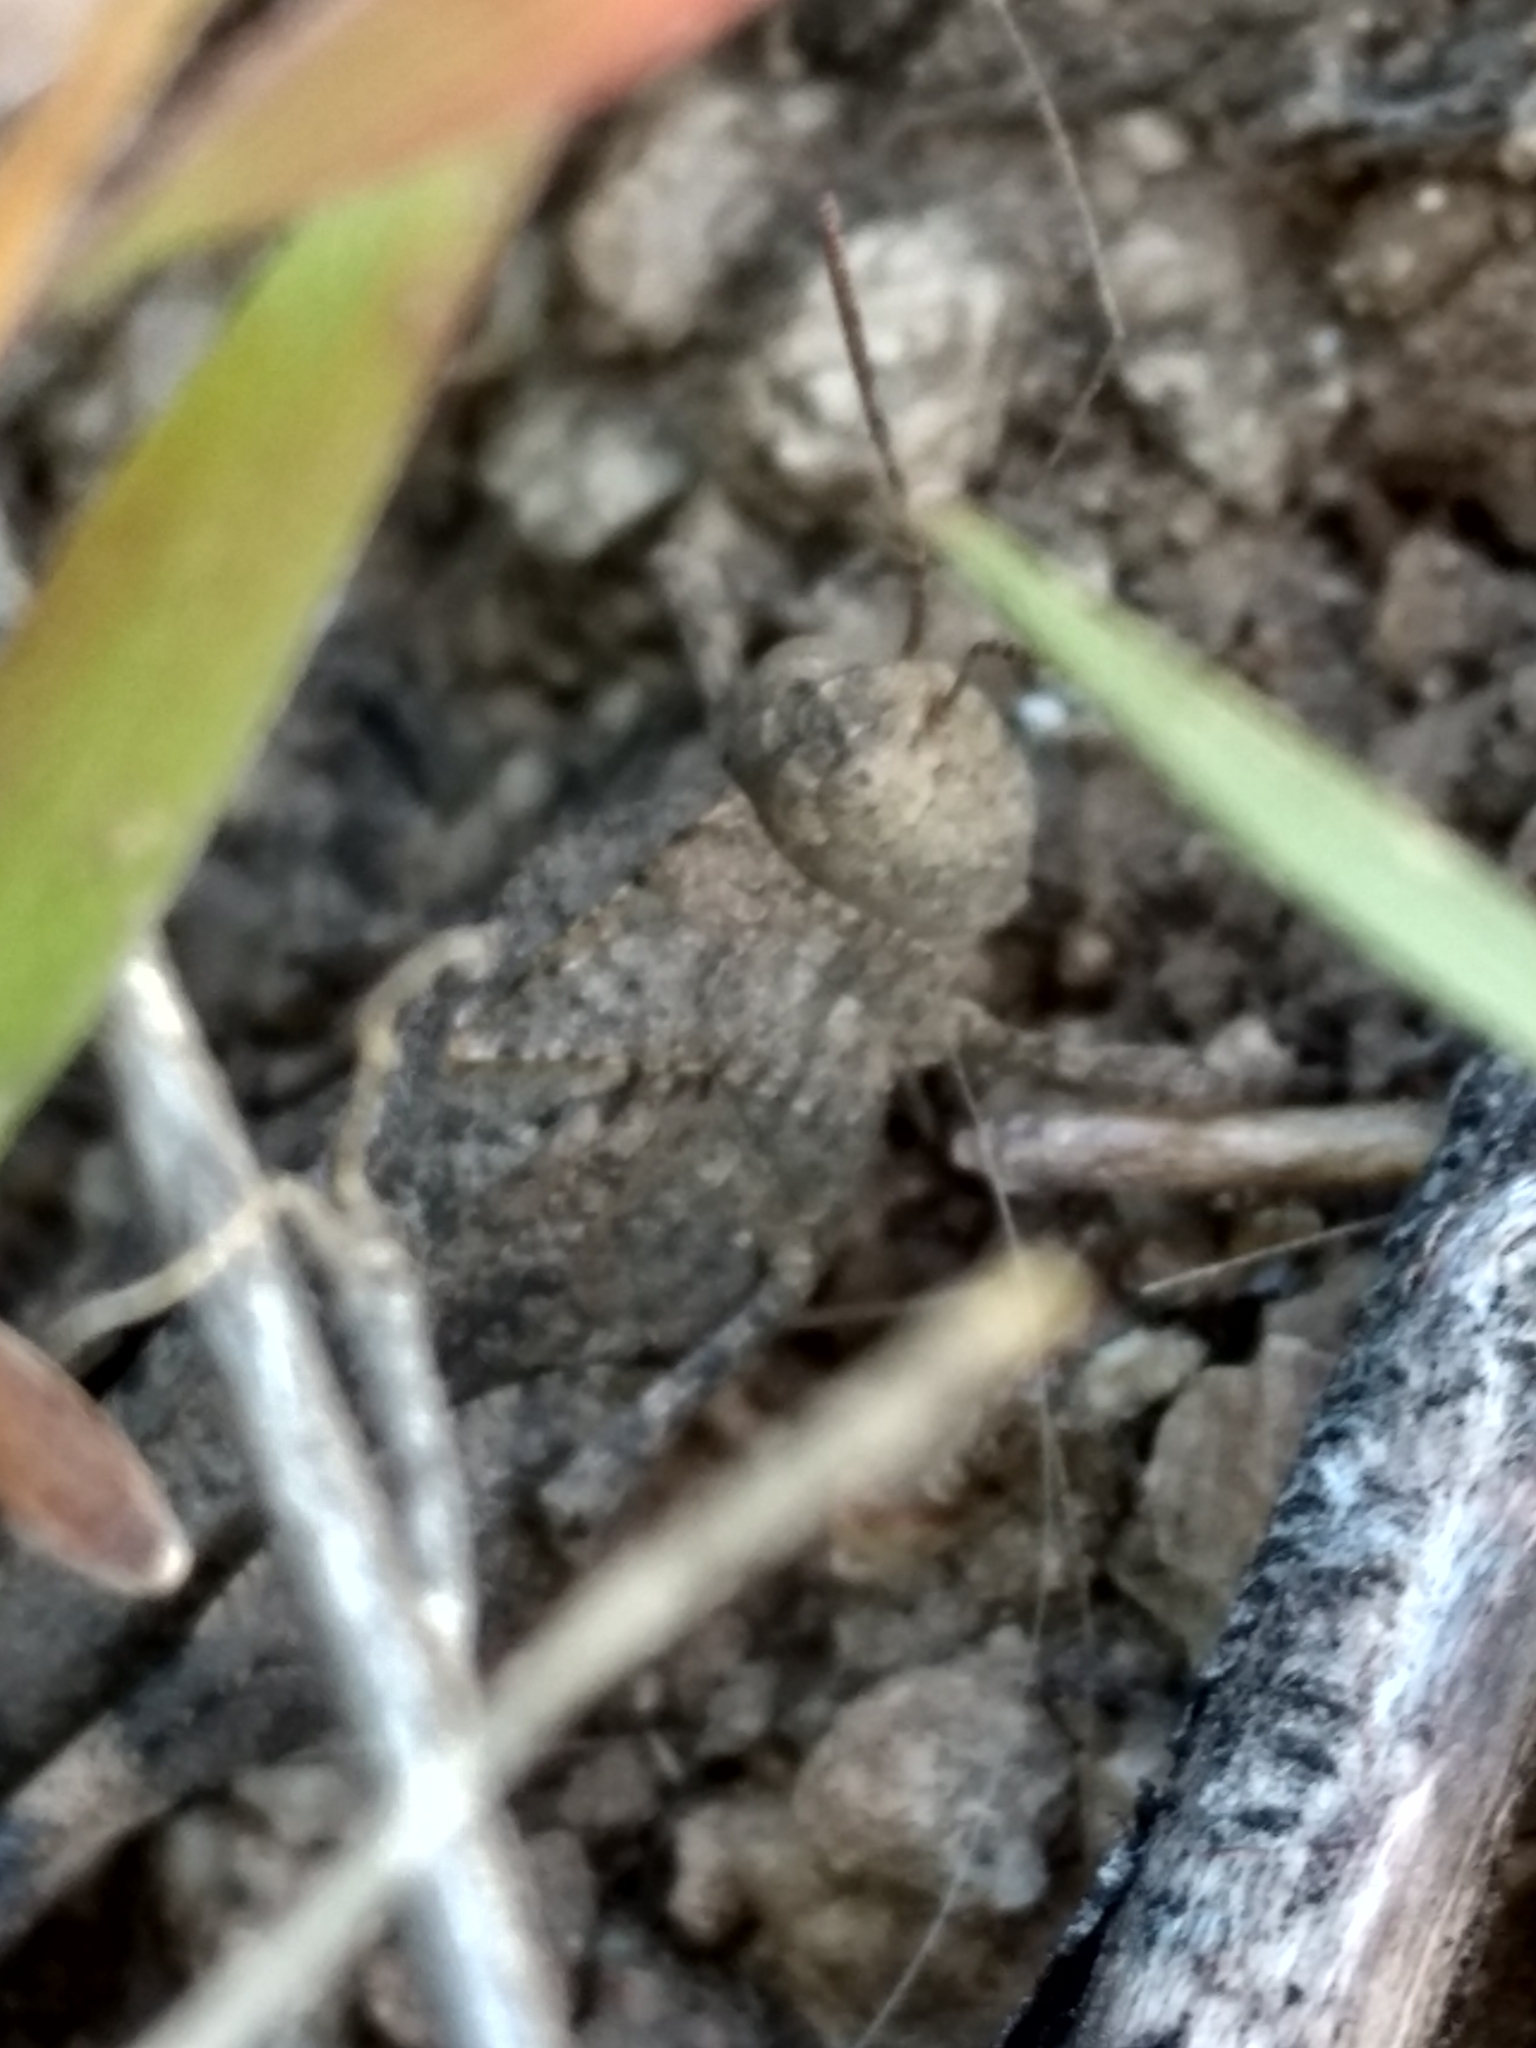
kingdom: Animalia
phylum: Arthropoda
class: Insecta
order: Orthoptera
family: Acrididae
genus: Lactista
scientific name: Lactista gibbosus
